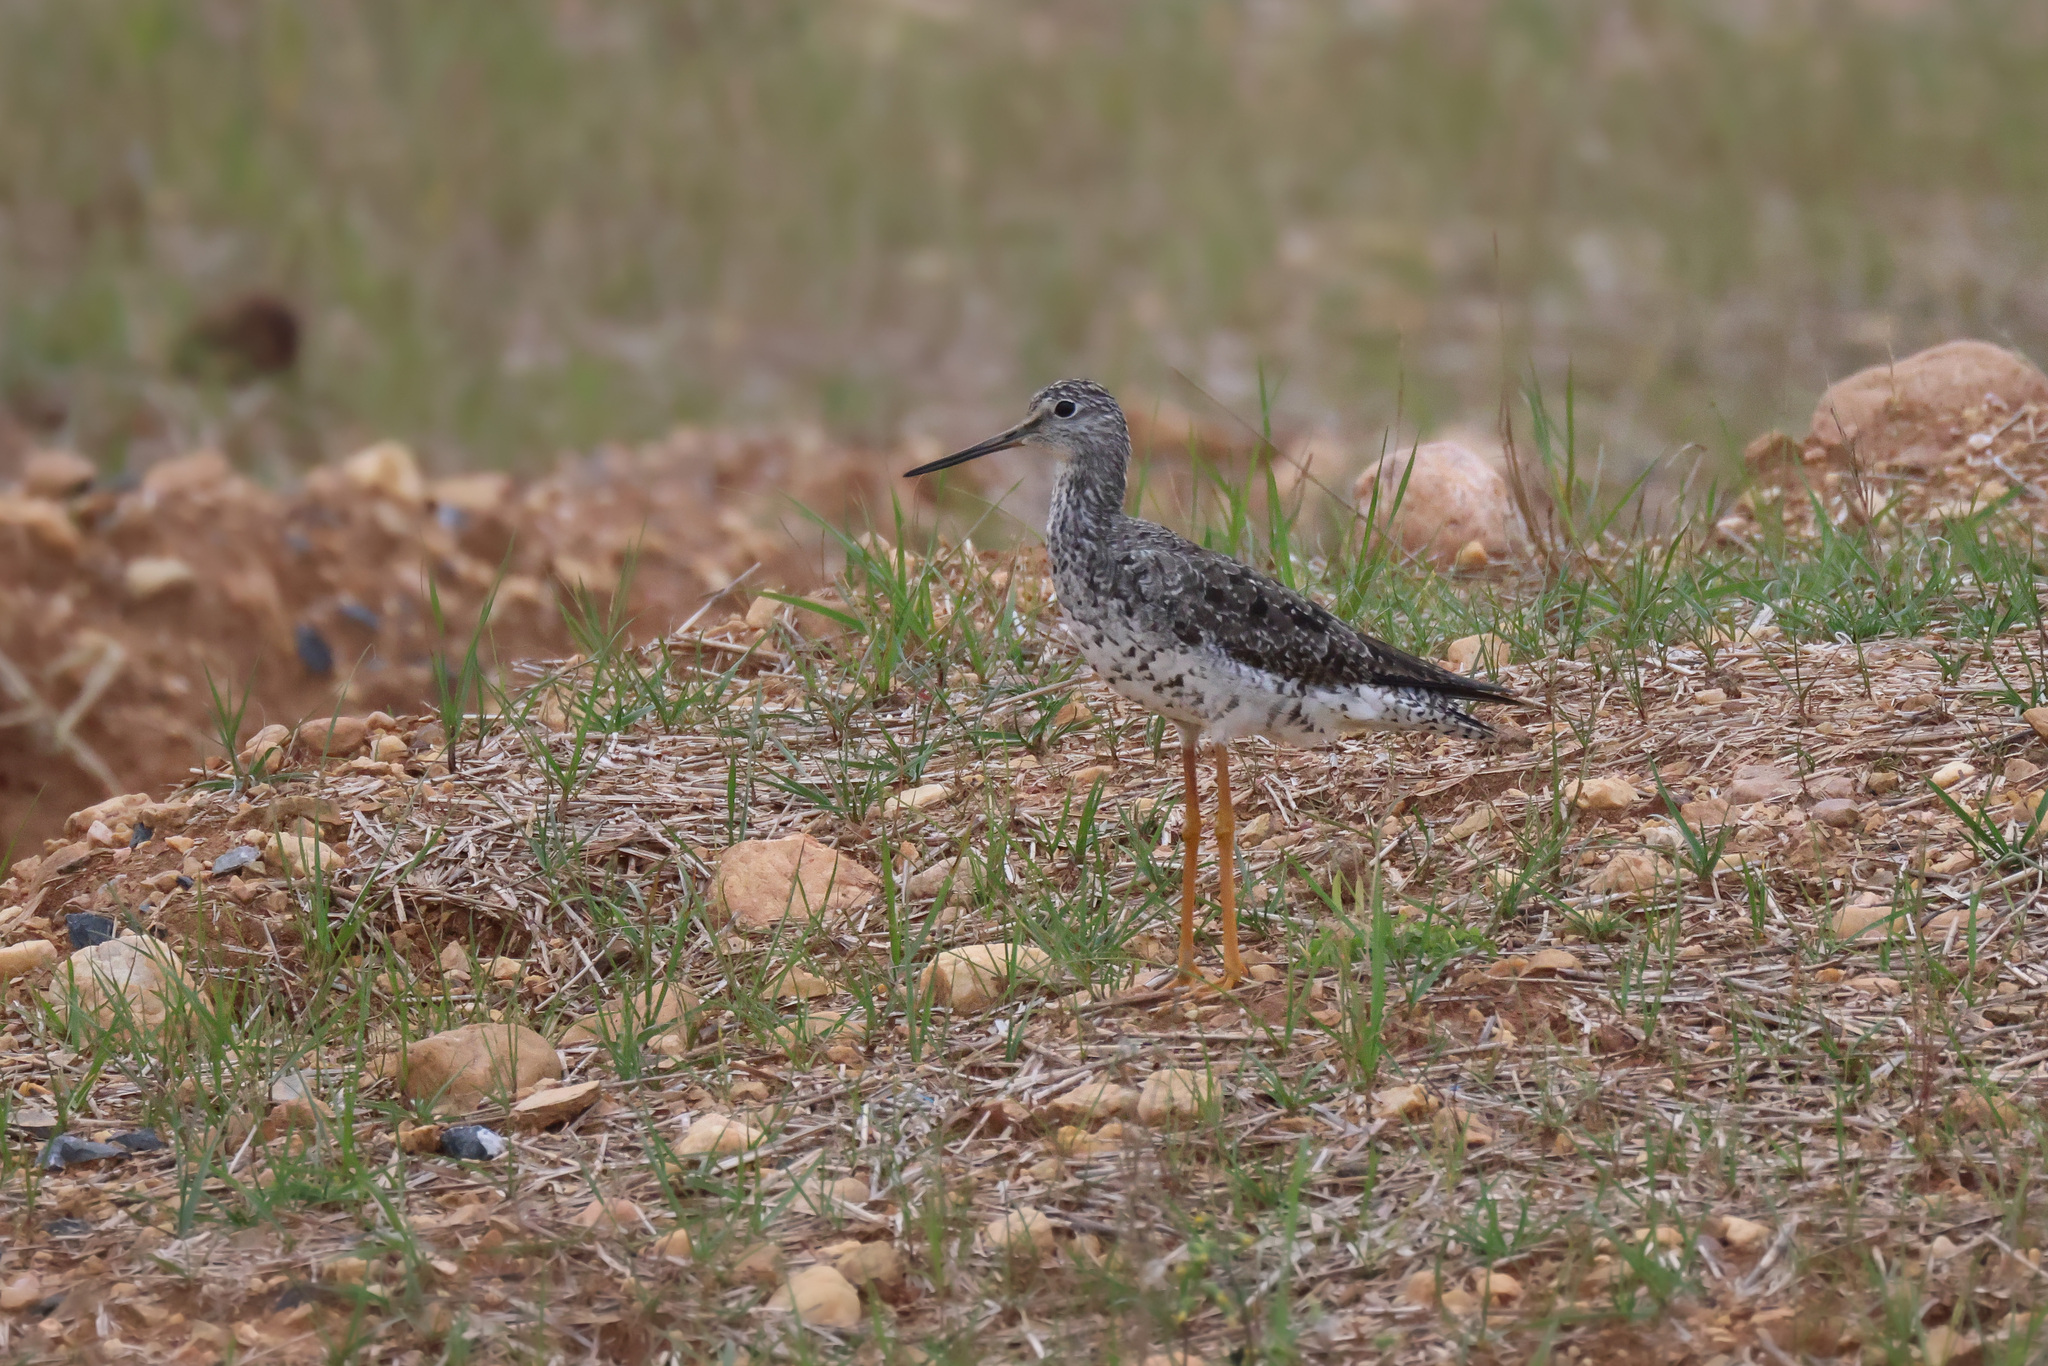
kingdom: Animalia
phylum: Chordata
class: Aves
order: Charadriiformes
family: Scolopacidae
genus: Tringa
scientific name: Tringa melanoleuca
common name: Greater yellowlegs
